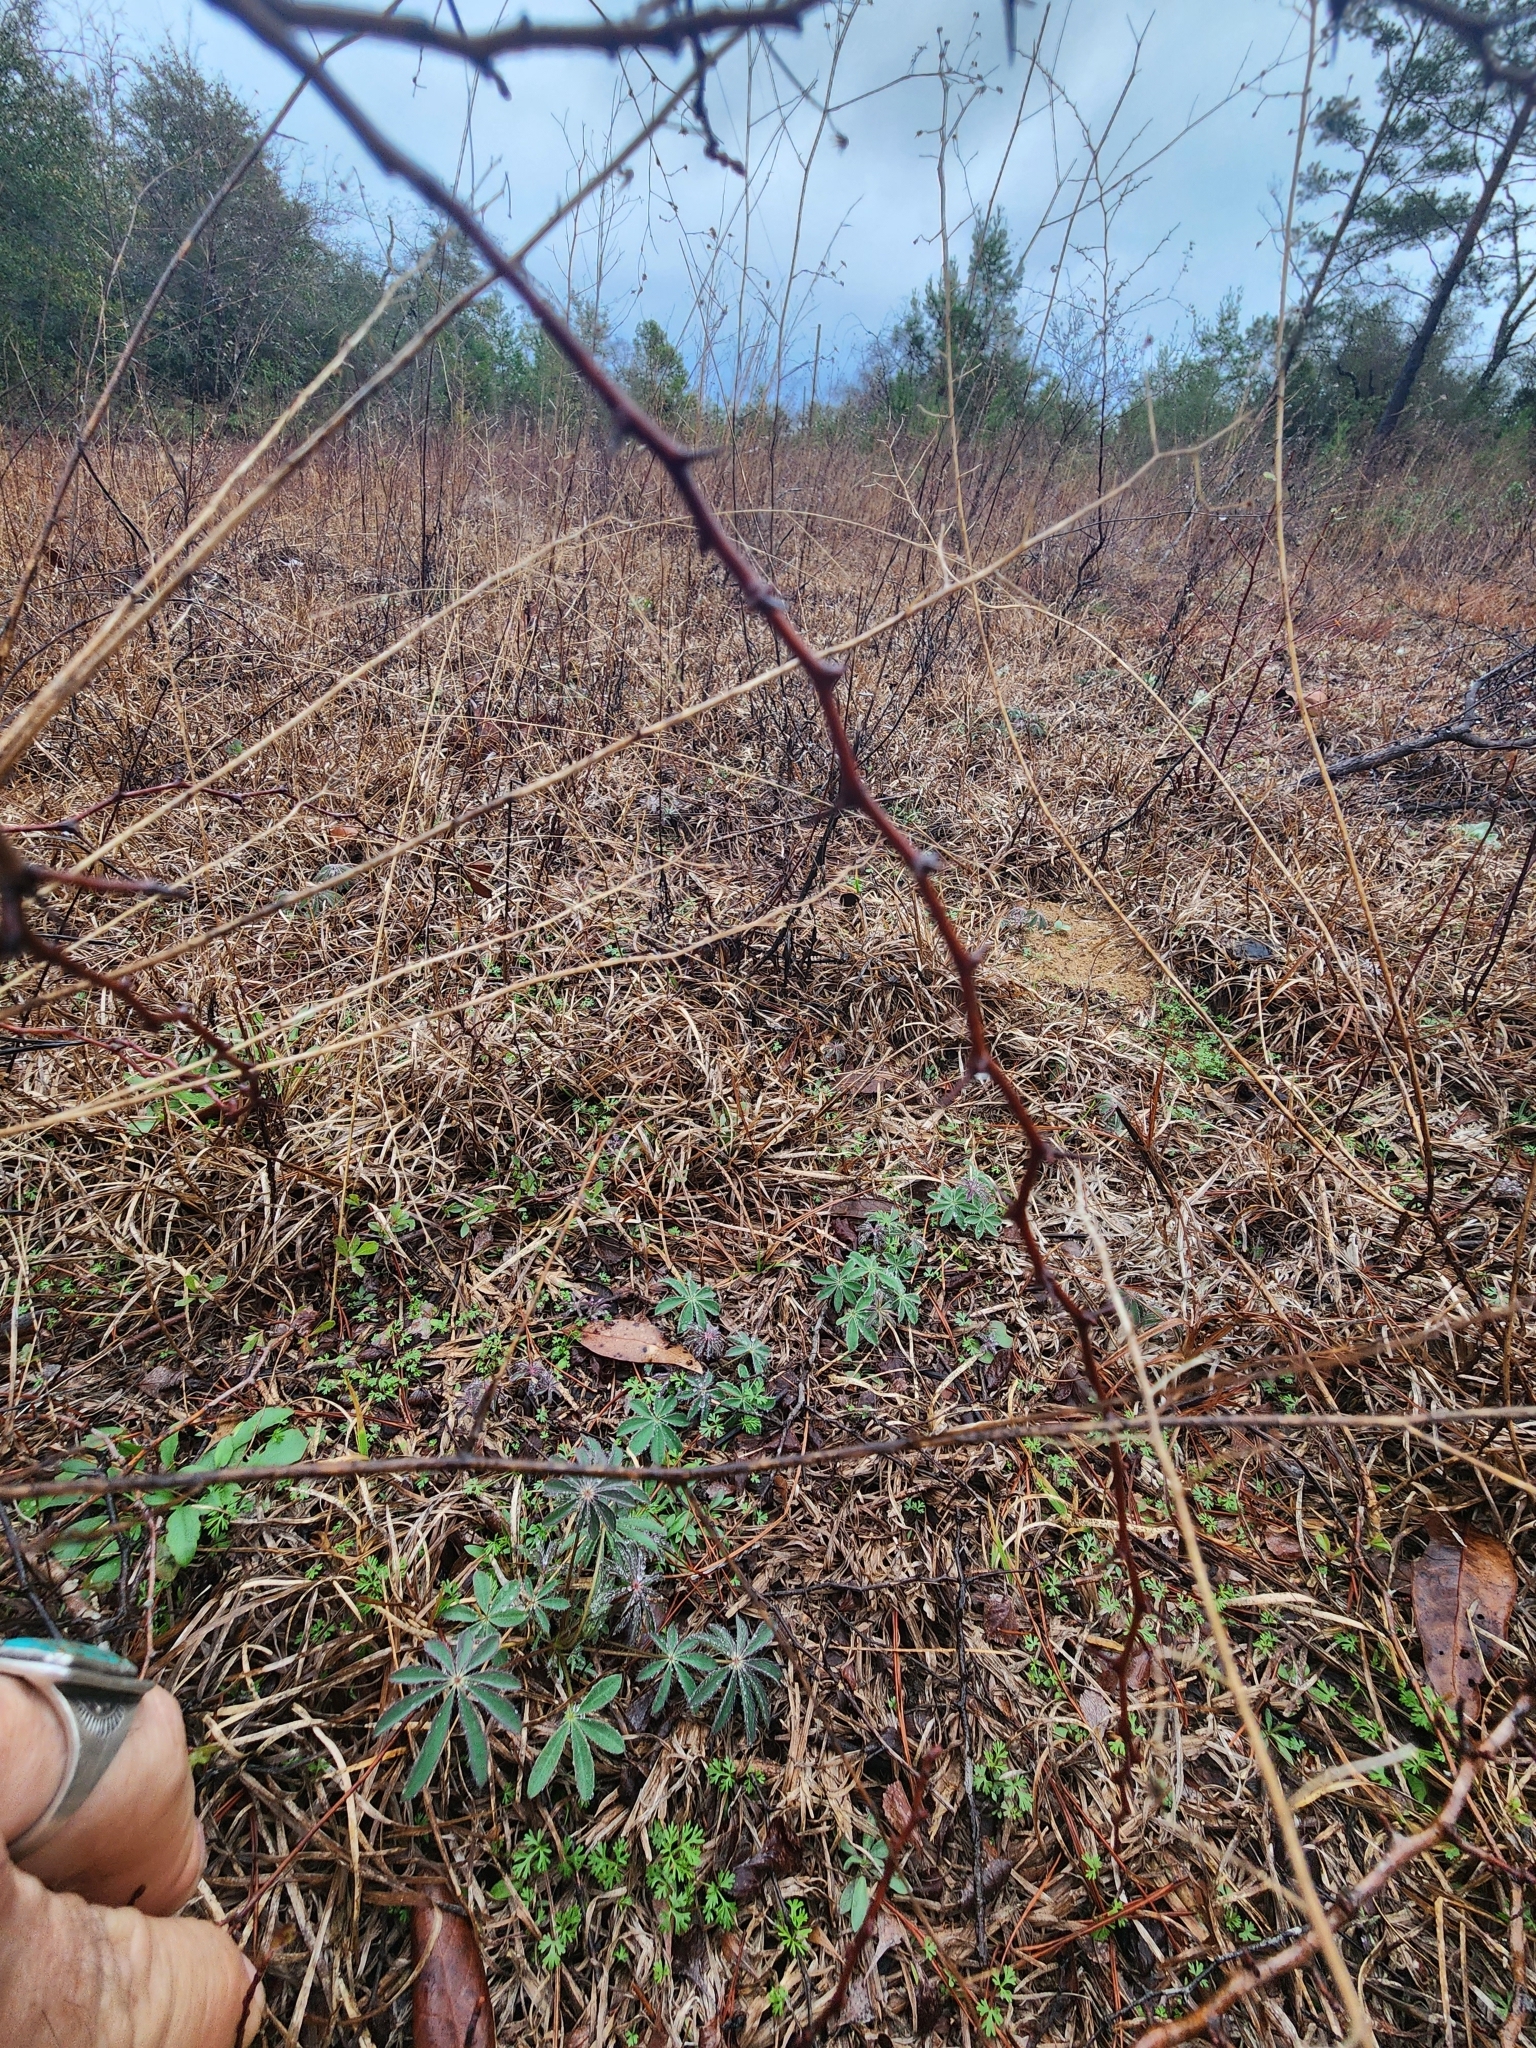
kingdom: Plantae
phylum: Tracheophyta
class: Magnoliopsida
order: Fabales
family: Fabaceae
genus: Lupinus
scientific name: Lupinus perennis
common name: Sundial lupine
